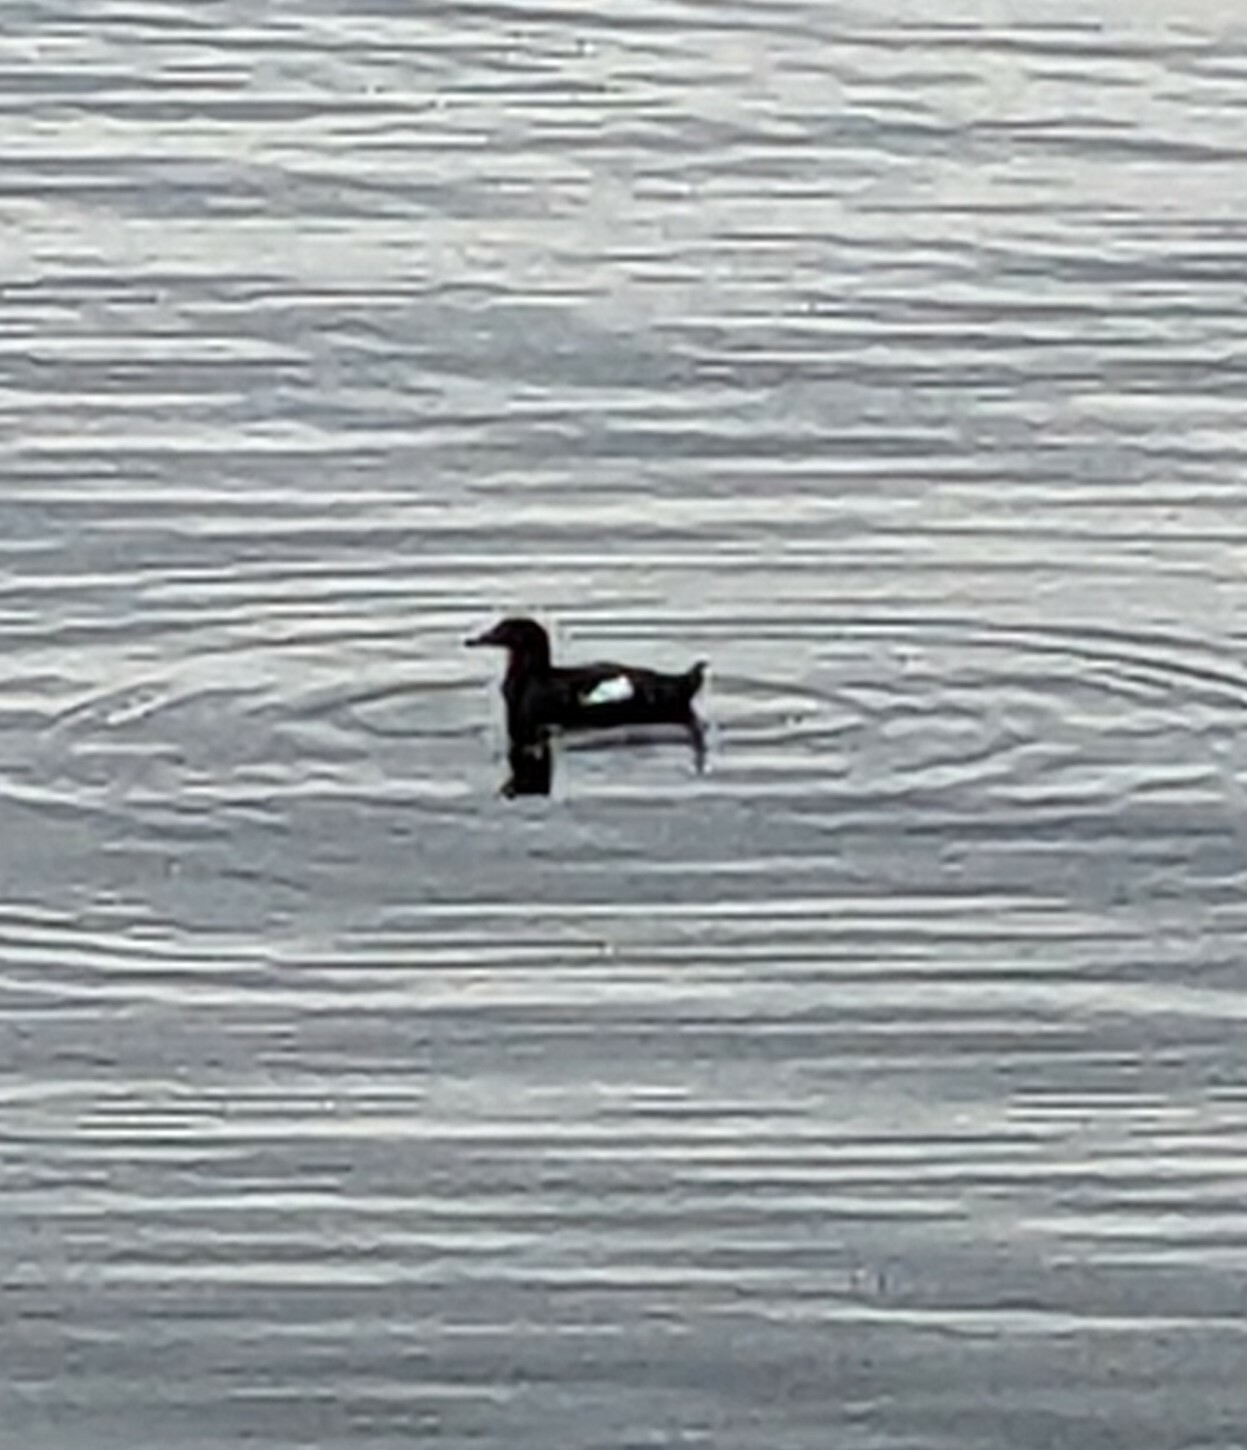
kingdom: Animalia
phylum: Chordata
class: Aves
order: Charadriiformes
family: Alcidae
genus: Cepphus
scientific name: Cepphus columba
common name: Pigeon guillemot
